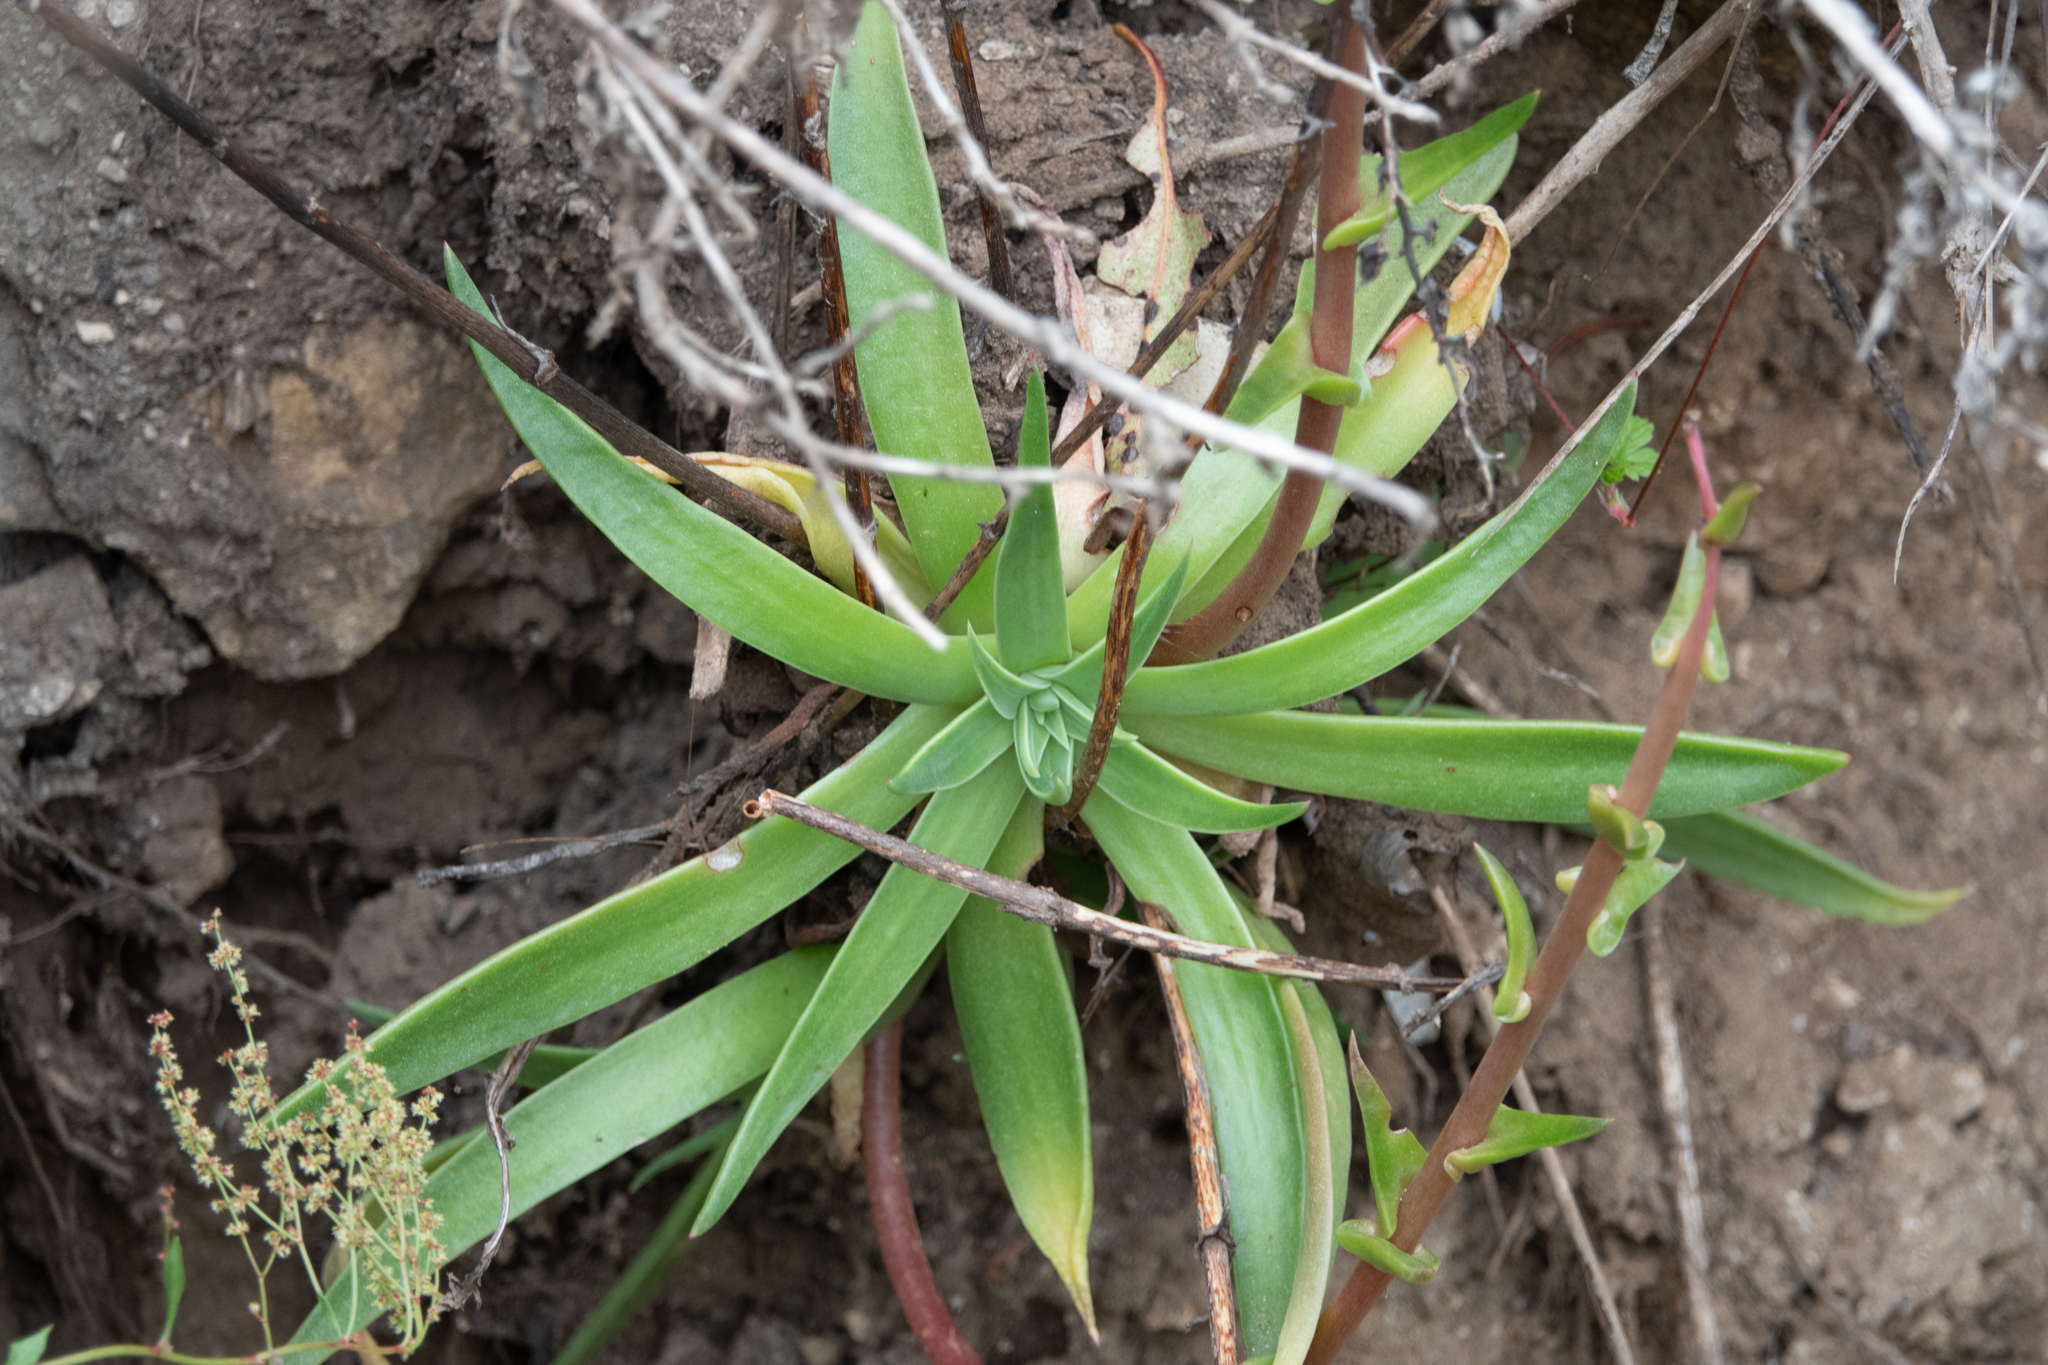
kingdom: Plantae
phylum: Tracheophyta
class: Magnoliopsida
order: Saxifragales
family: Crassulaceae
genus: Dudleya
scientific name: Dudleya lanceolata
